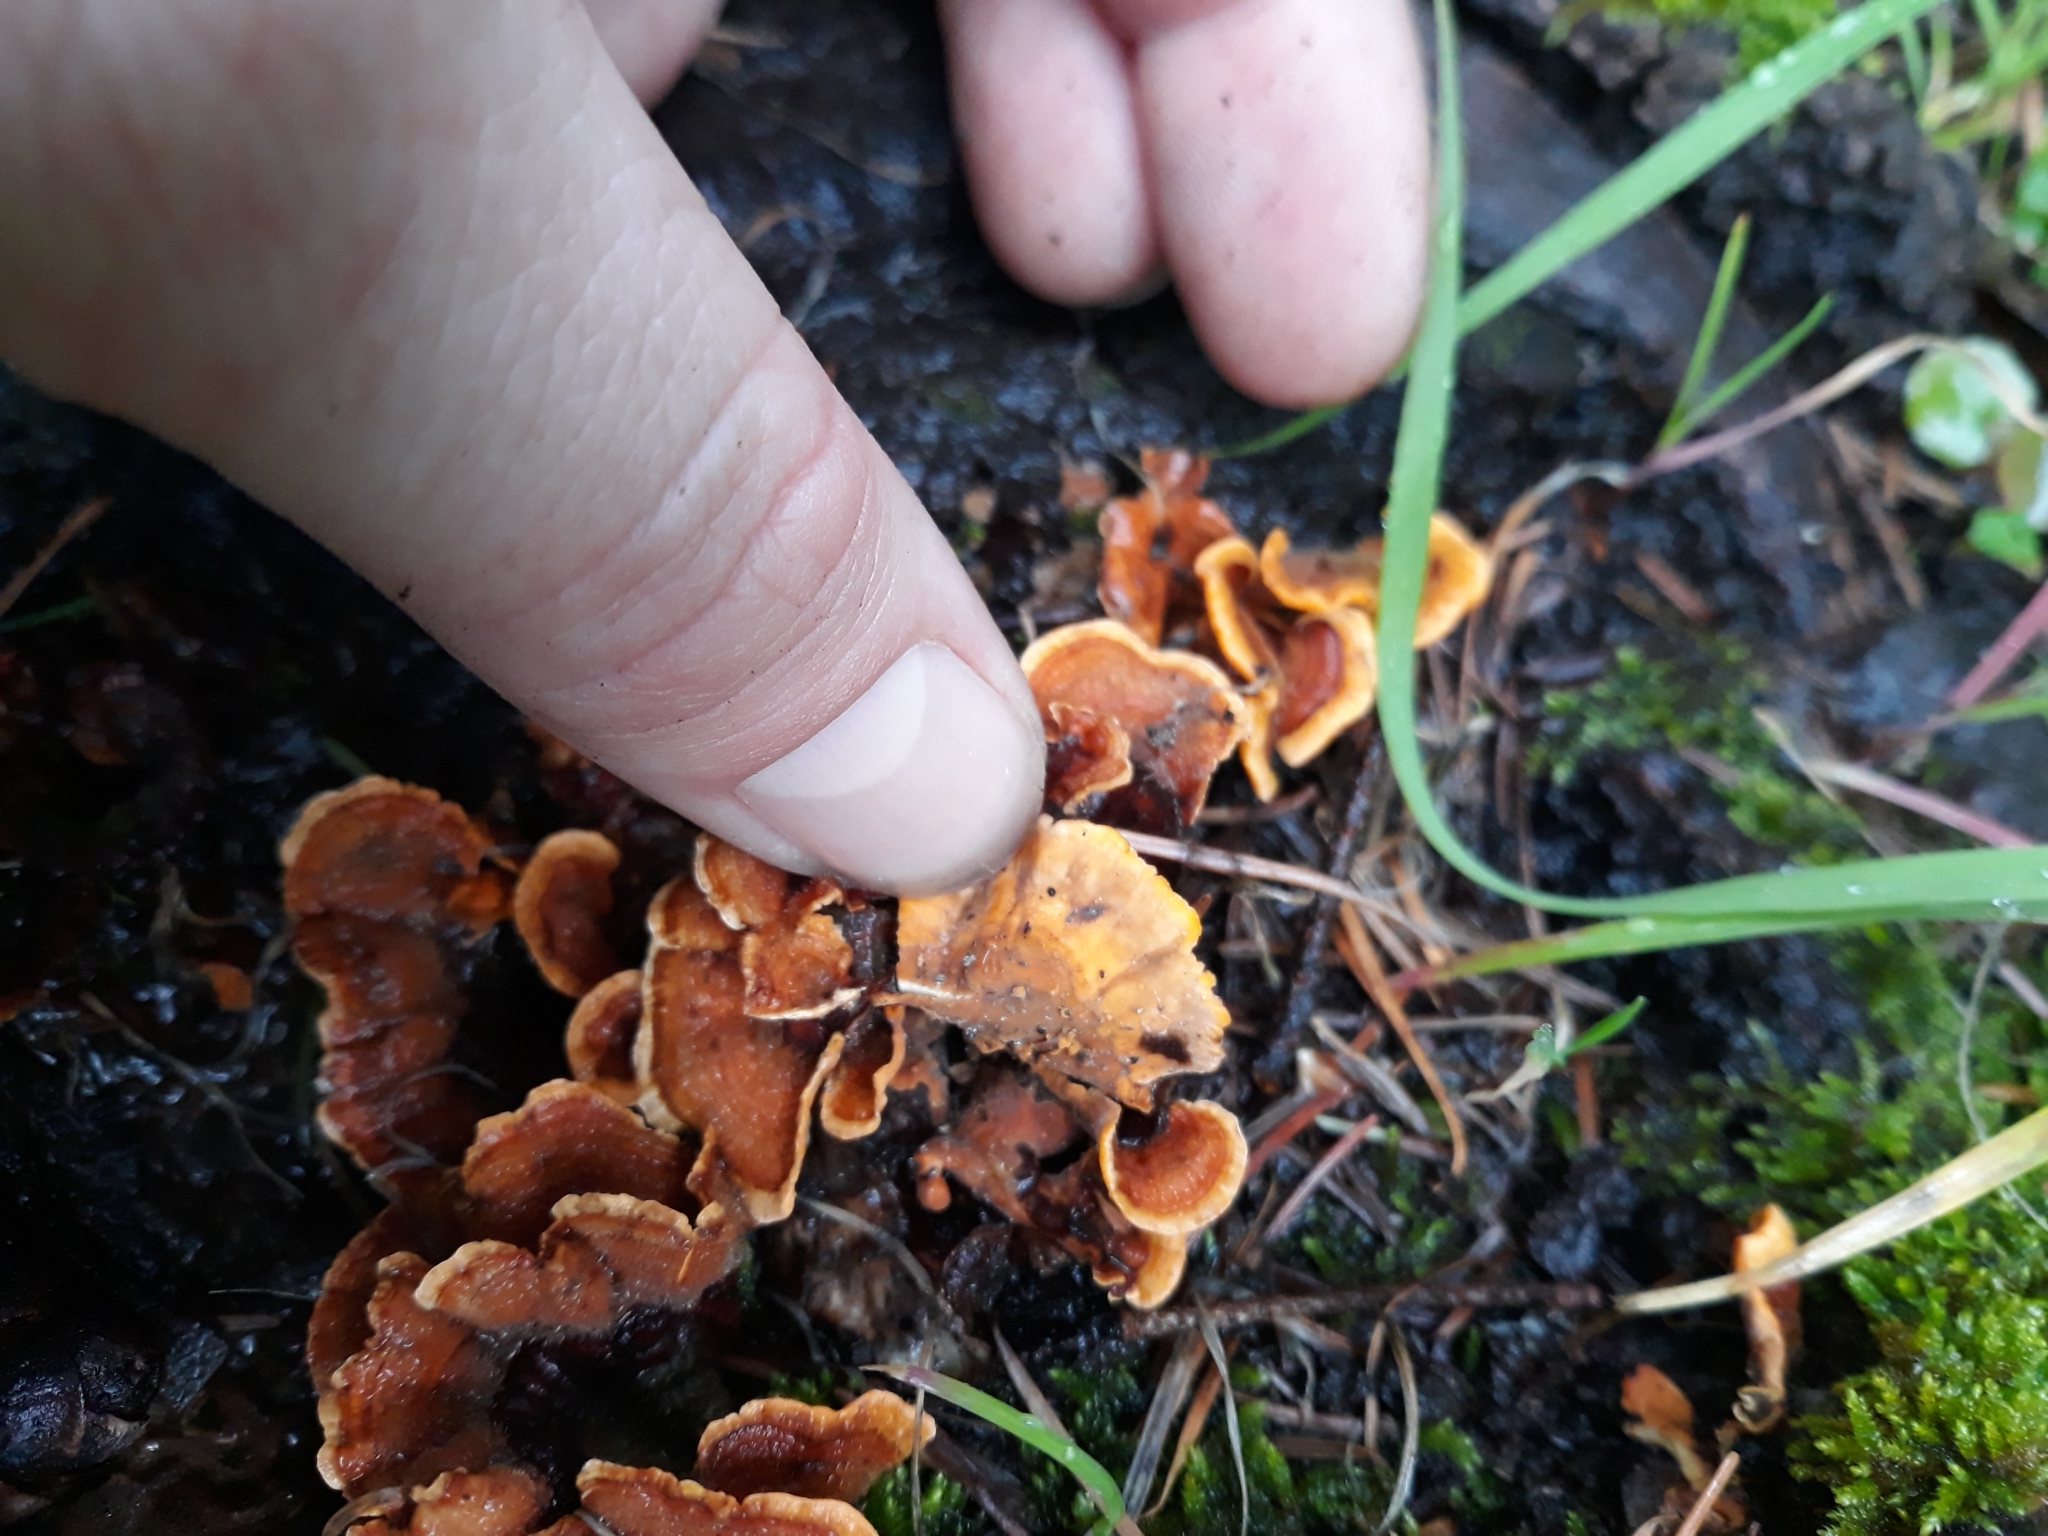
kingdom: Fungi
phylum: Basidiomycota
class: Agaricomycetes
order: Russulales
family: Stereaceae
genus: Stereum
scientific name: Stereum hirsutum
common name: Hairy curtain crust
